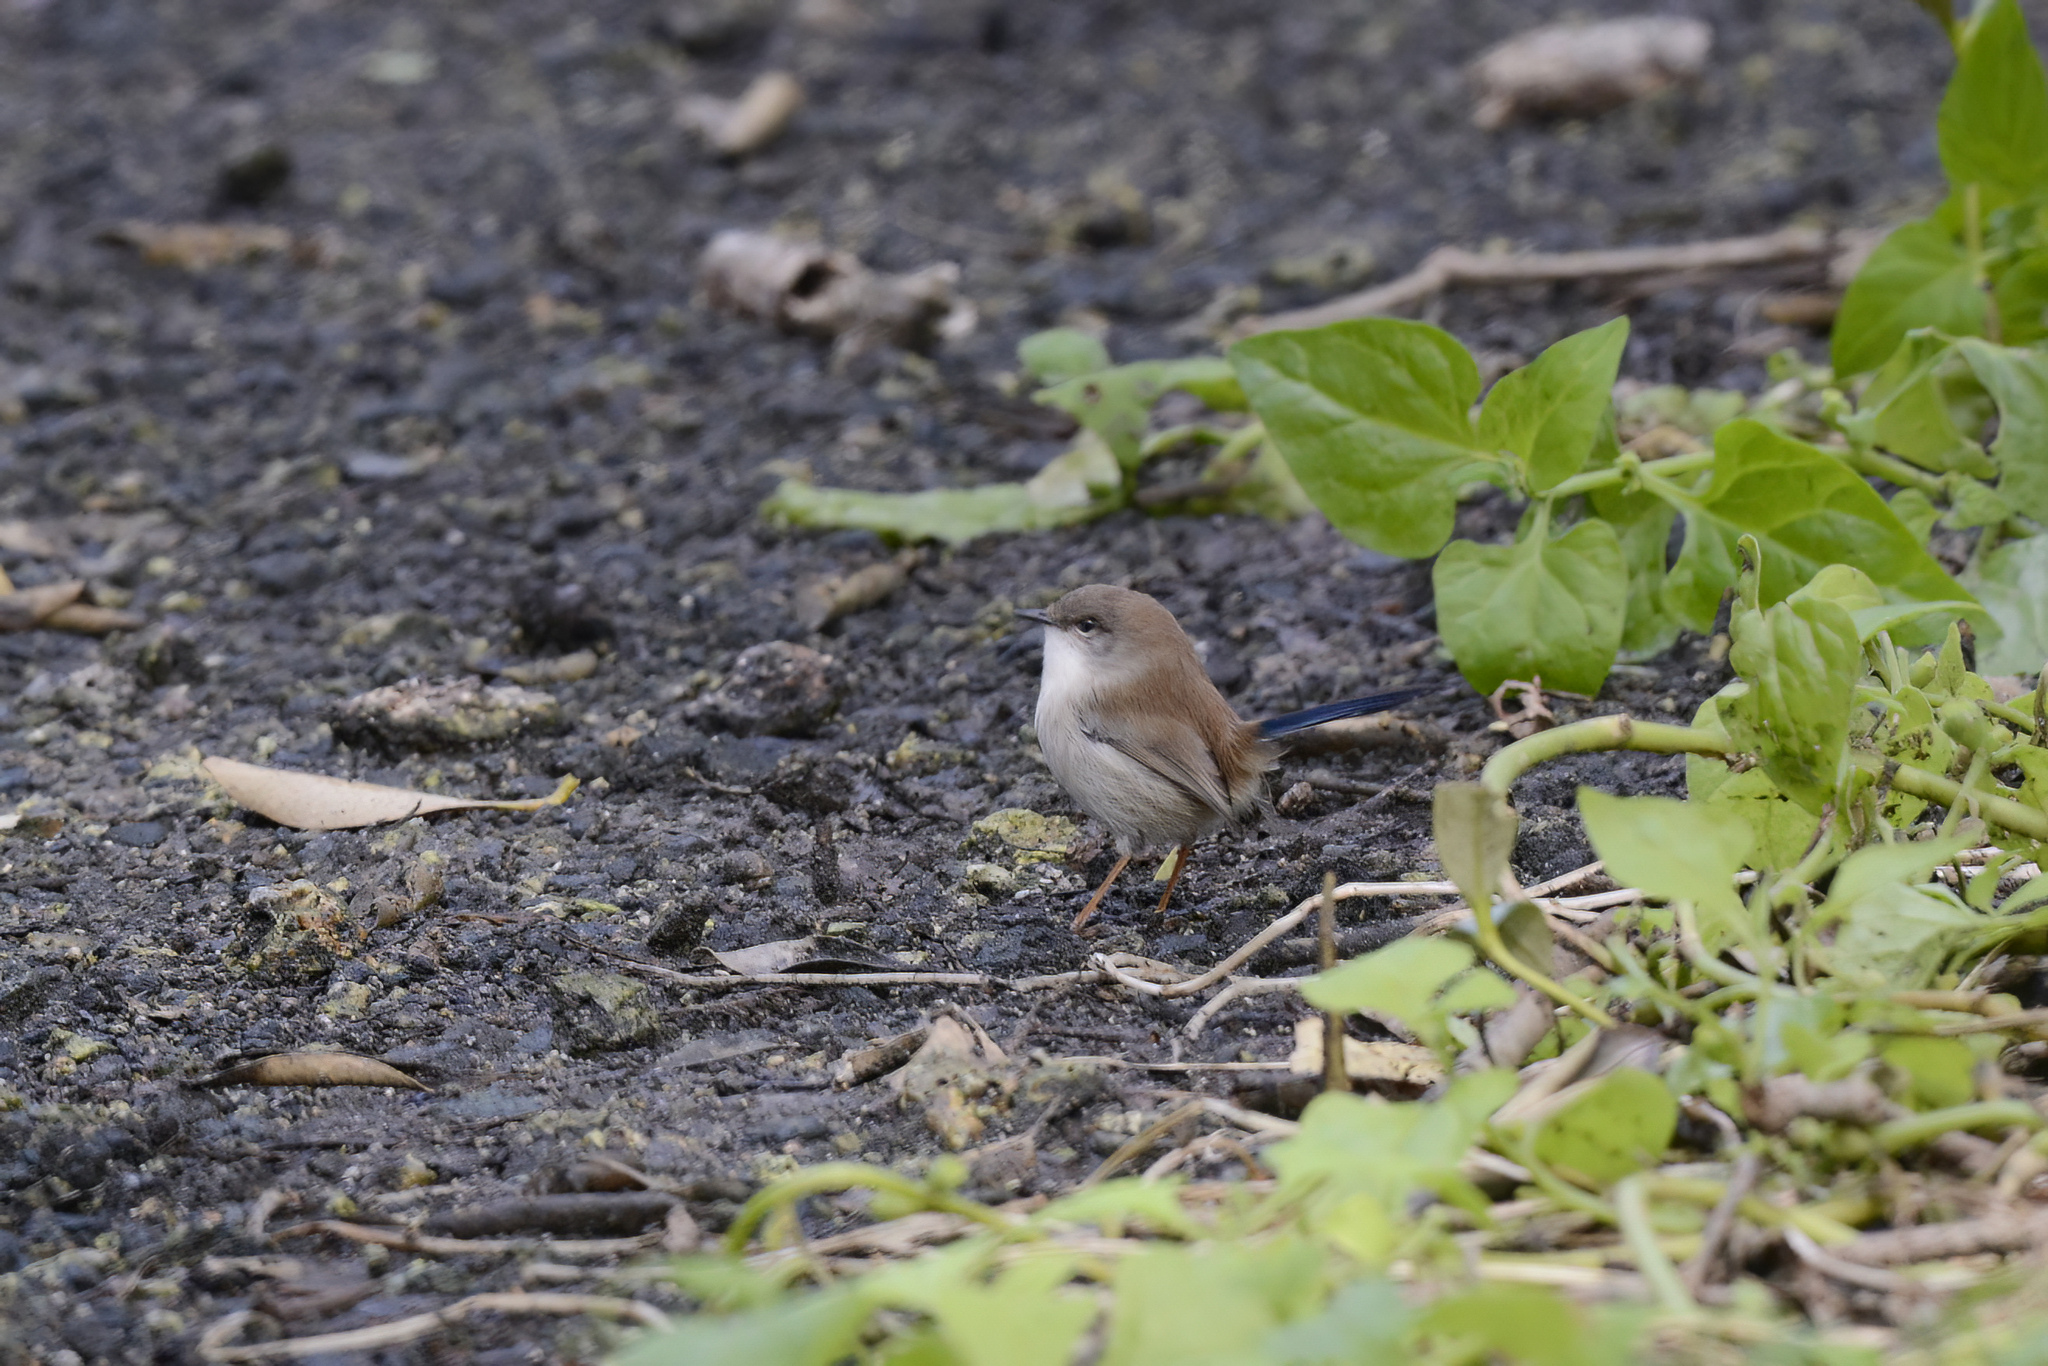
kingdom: Animalia
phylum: Chordata
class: Aves
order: Passeriformes
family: Maluridae
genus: Malurus
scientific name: Malurus cyaneus
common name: Superb fairywren
